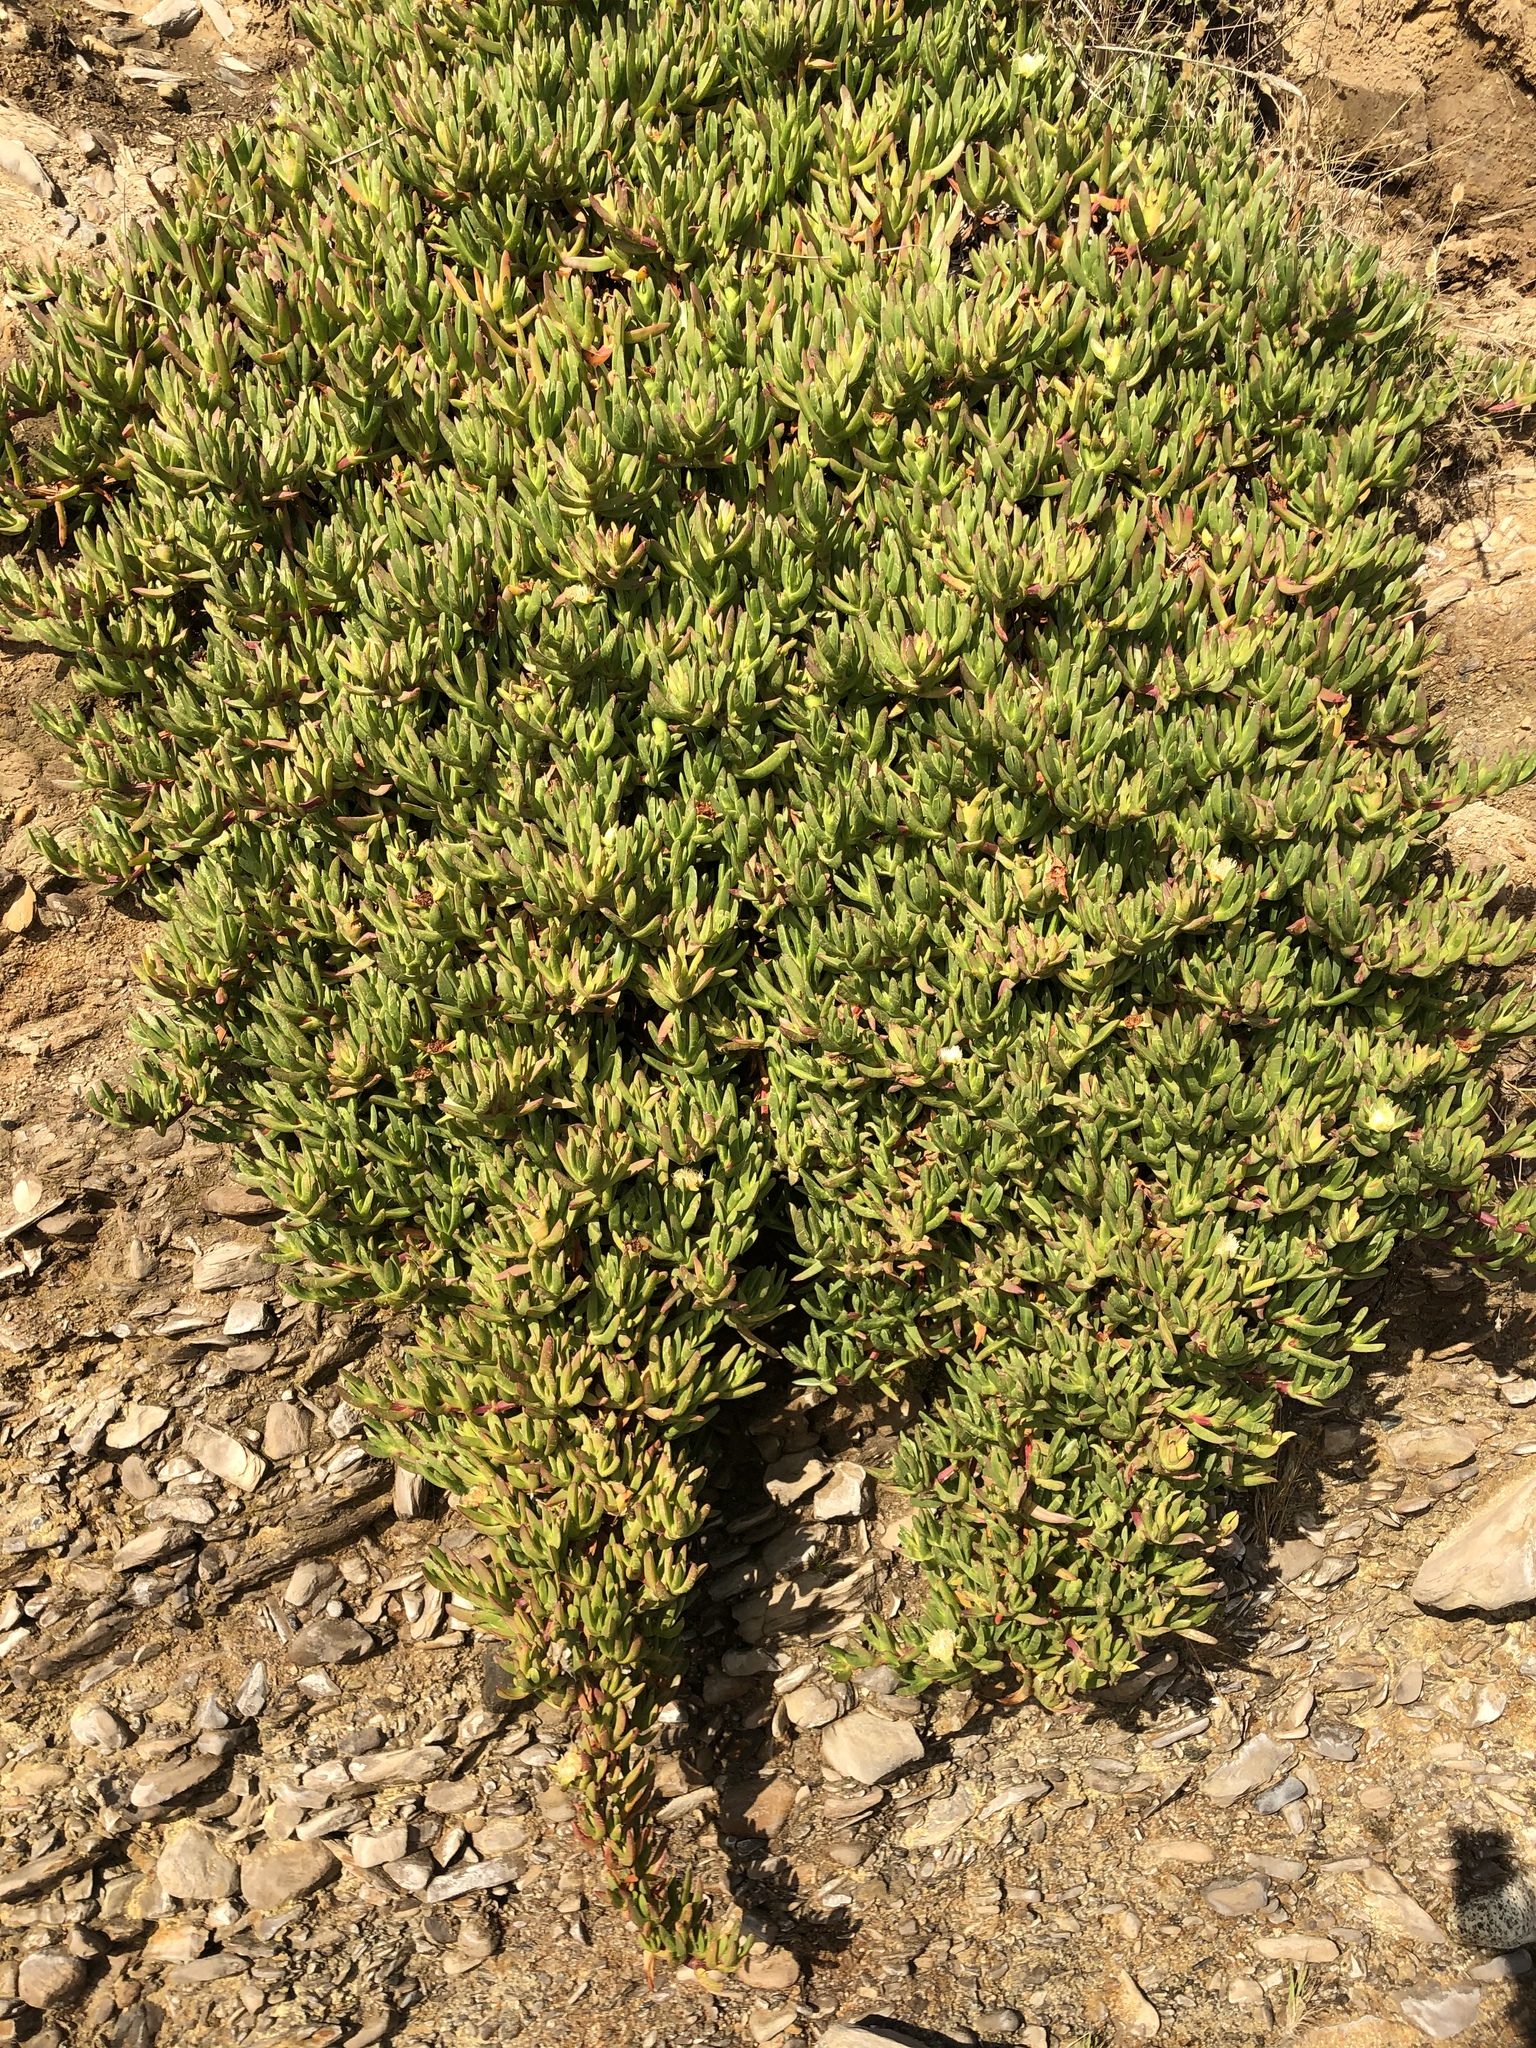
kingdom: Plantae
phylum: Tracheophyta
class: Magnoliopsida
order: Caryophyllales
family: Aizoaceae
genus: Carpobrotus
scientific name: Carpobrotus edulis
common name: Hottentot-fig
